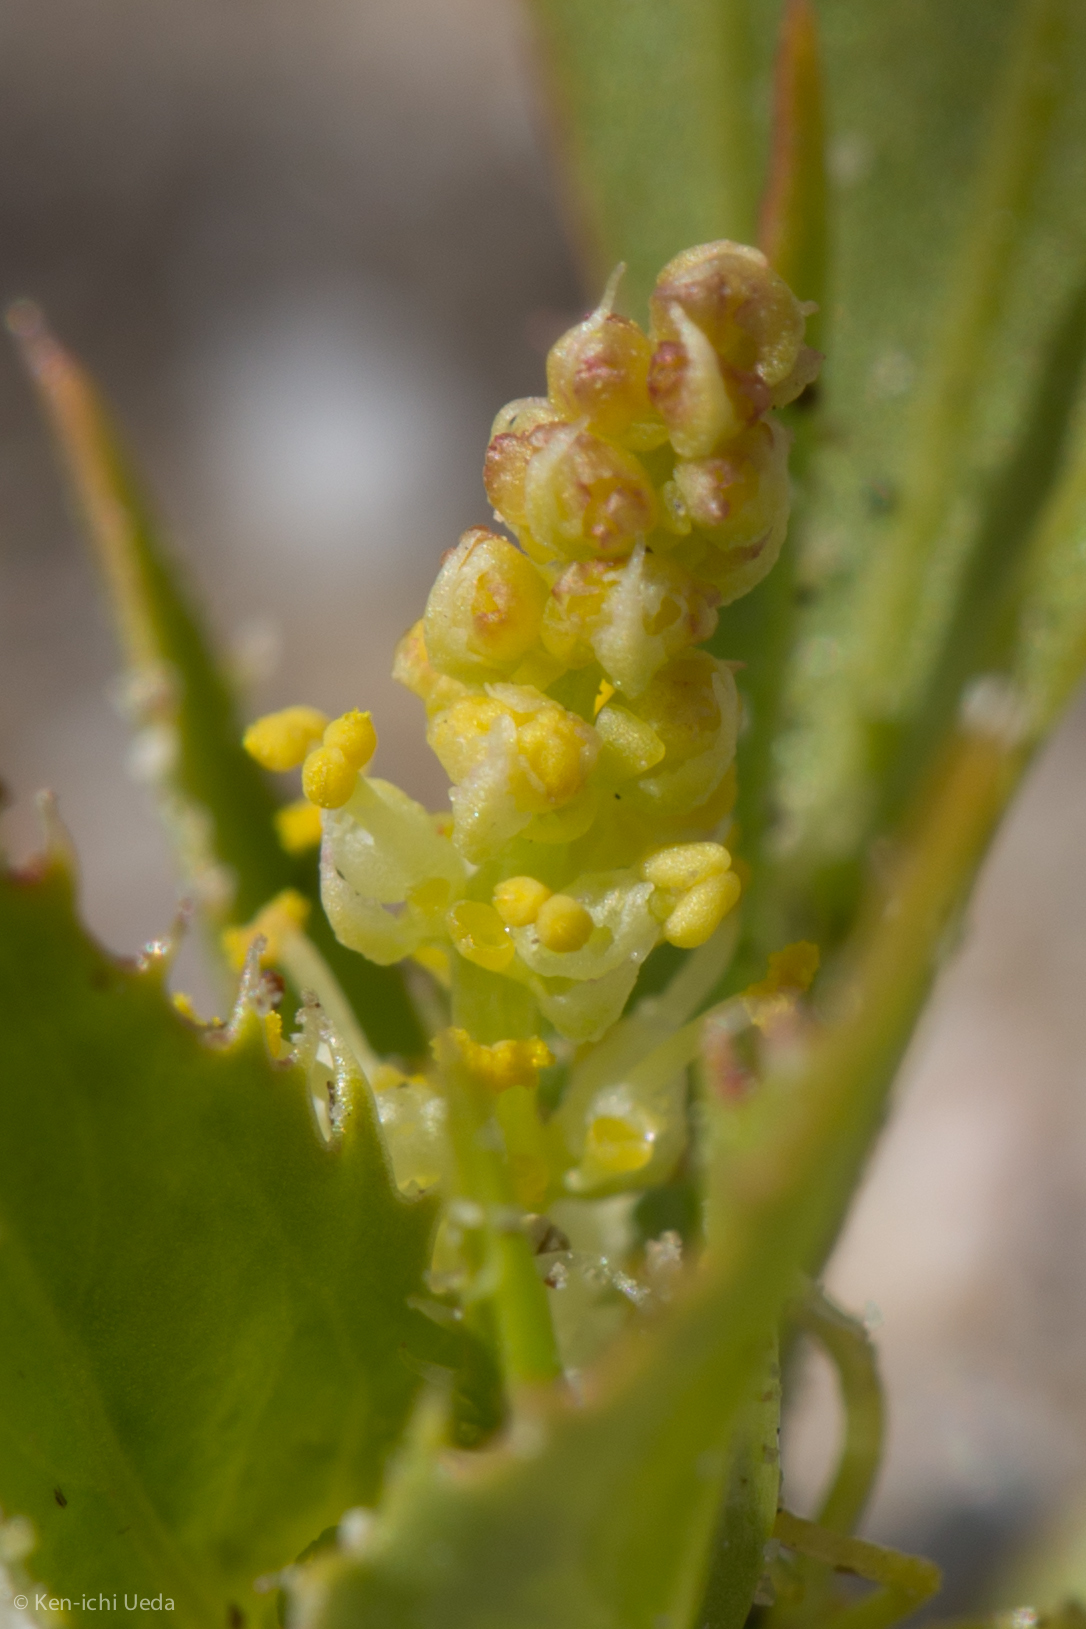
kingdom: Plantae
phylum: Tracheophyta
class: Magnoliopsida
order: Malpighiales
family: Euphorbiaceae
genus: Stillingia
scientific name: Stillingia spinulosa
